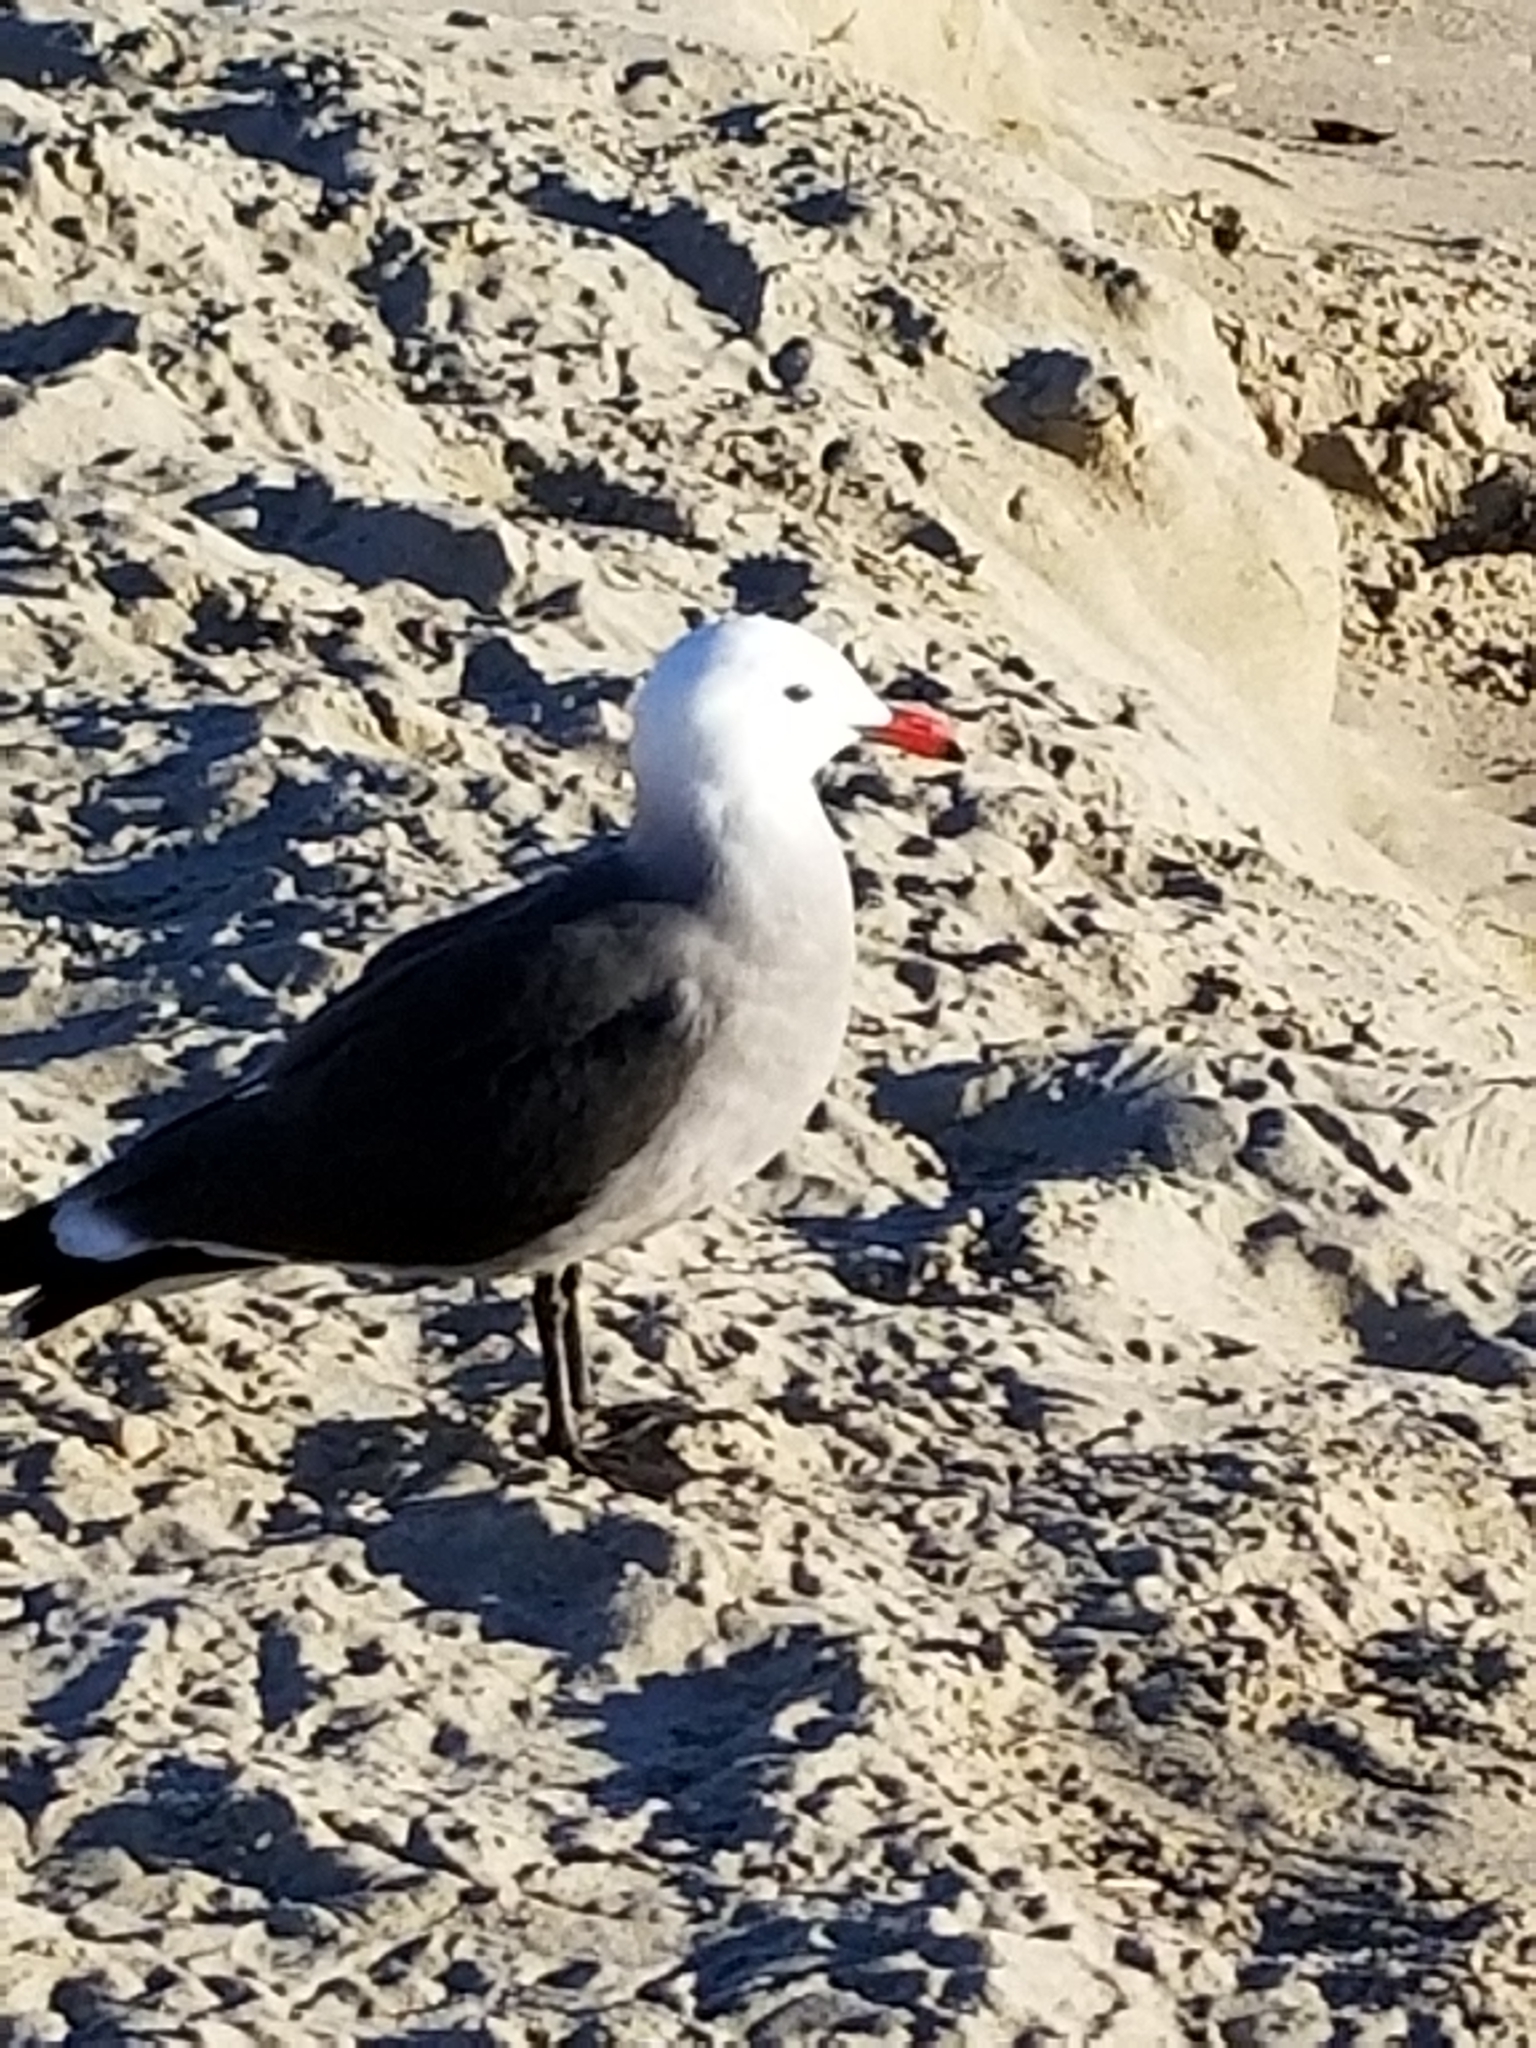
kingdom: Animalia
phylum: Chordata
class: Aves
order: Charadriiformes
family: Laridae
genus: Larus
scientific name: Larus heermanni
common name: Heermann's gull
